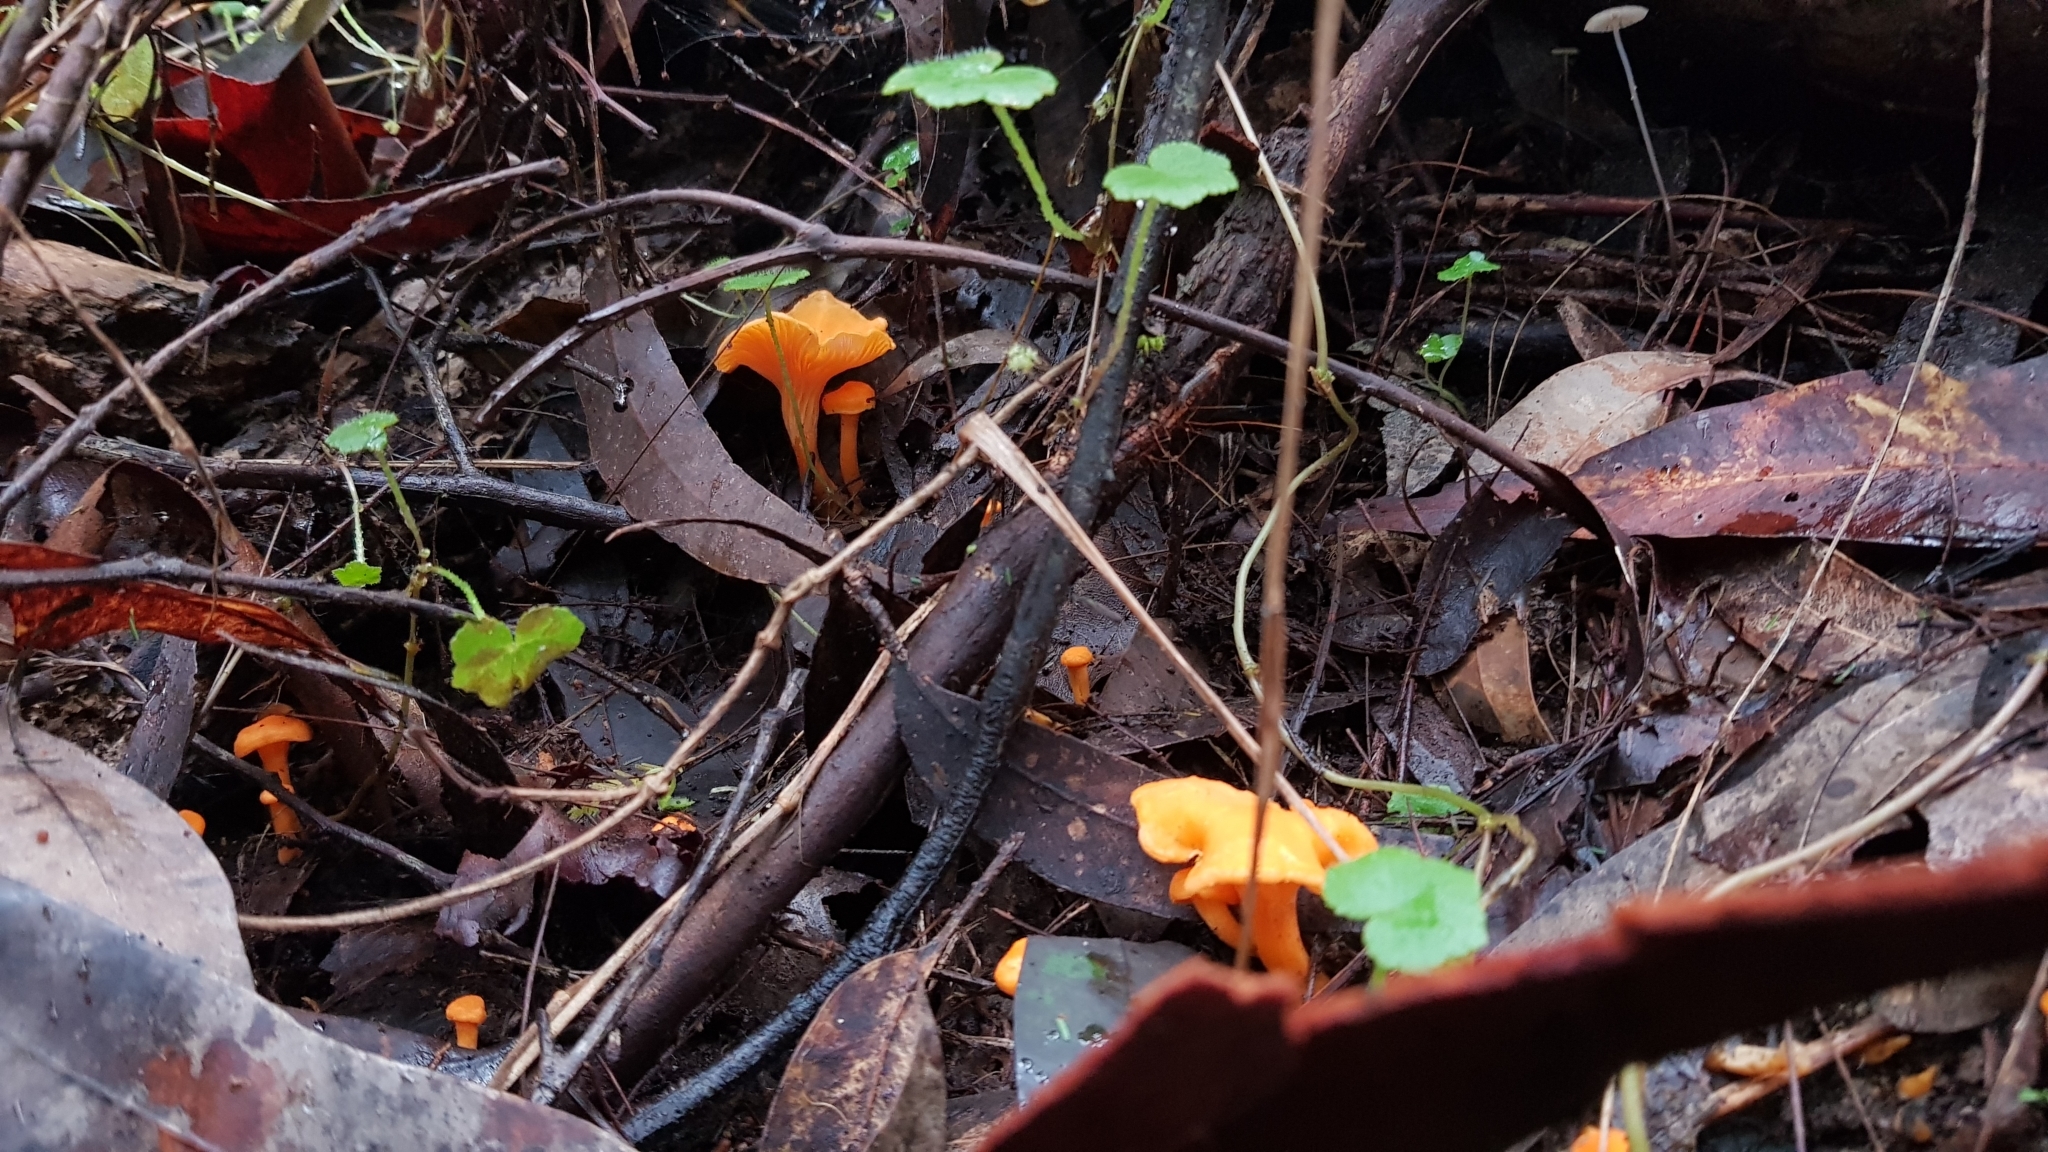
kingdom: Fungi
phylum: Basidiomycota
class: Agaricomycetes
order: Cantharellales
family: Hydnaceae
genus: Cantharellus
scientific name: Cantharellus
